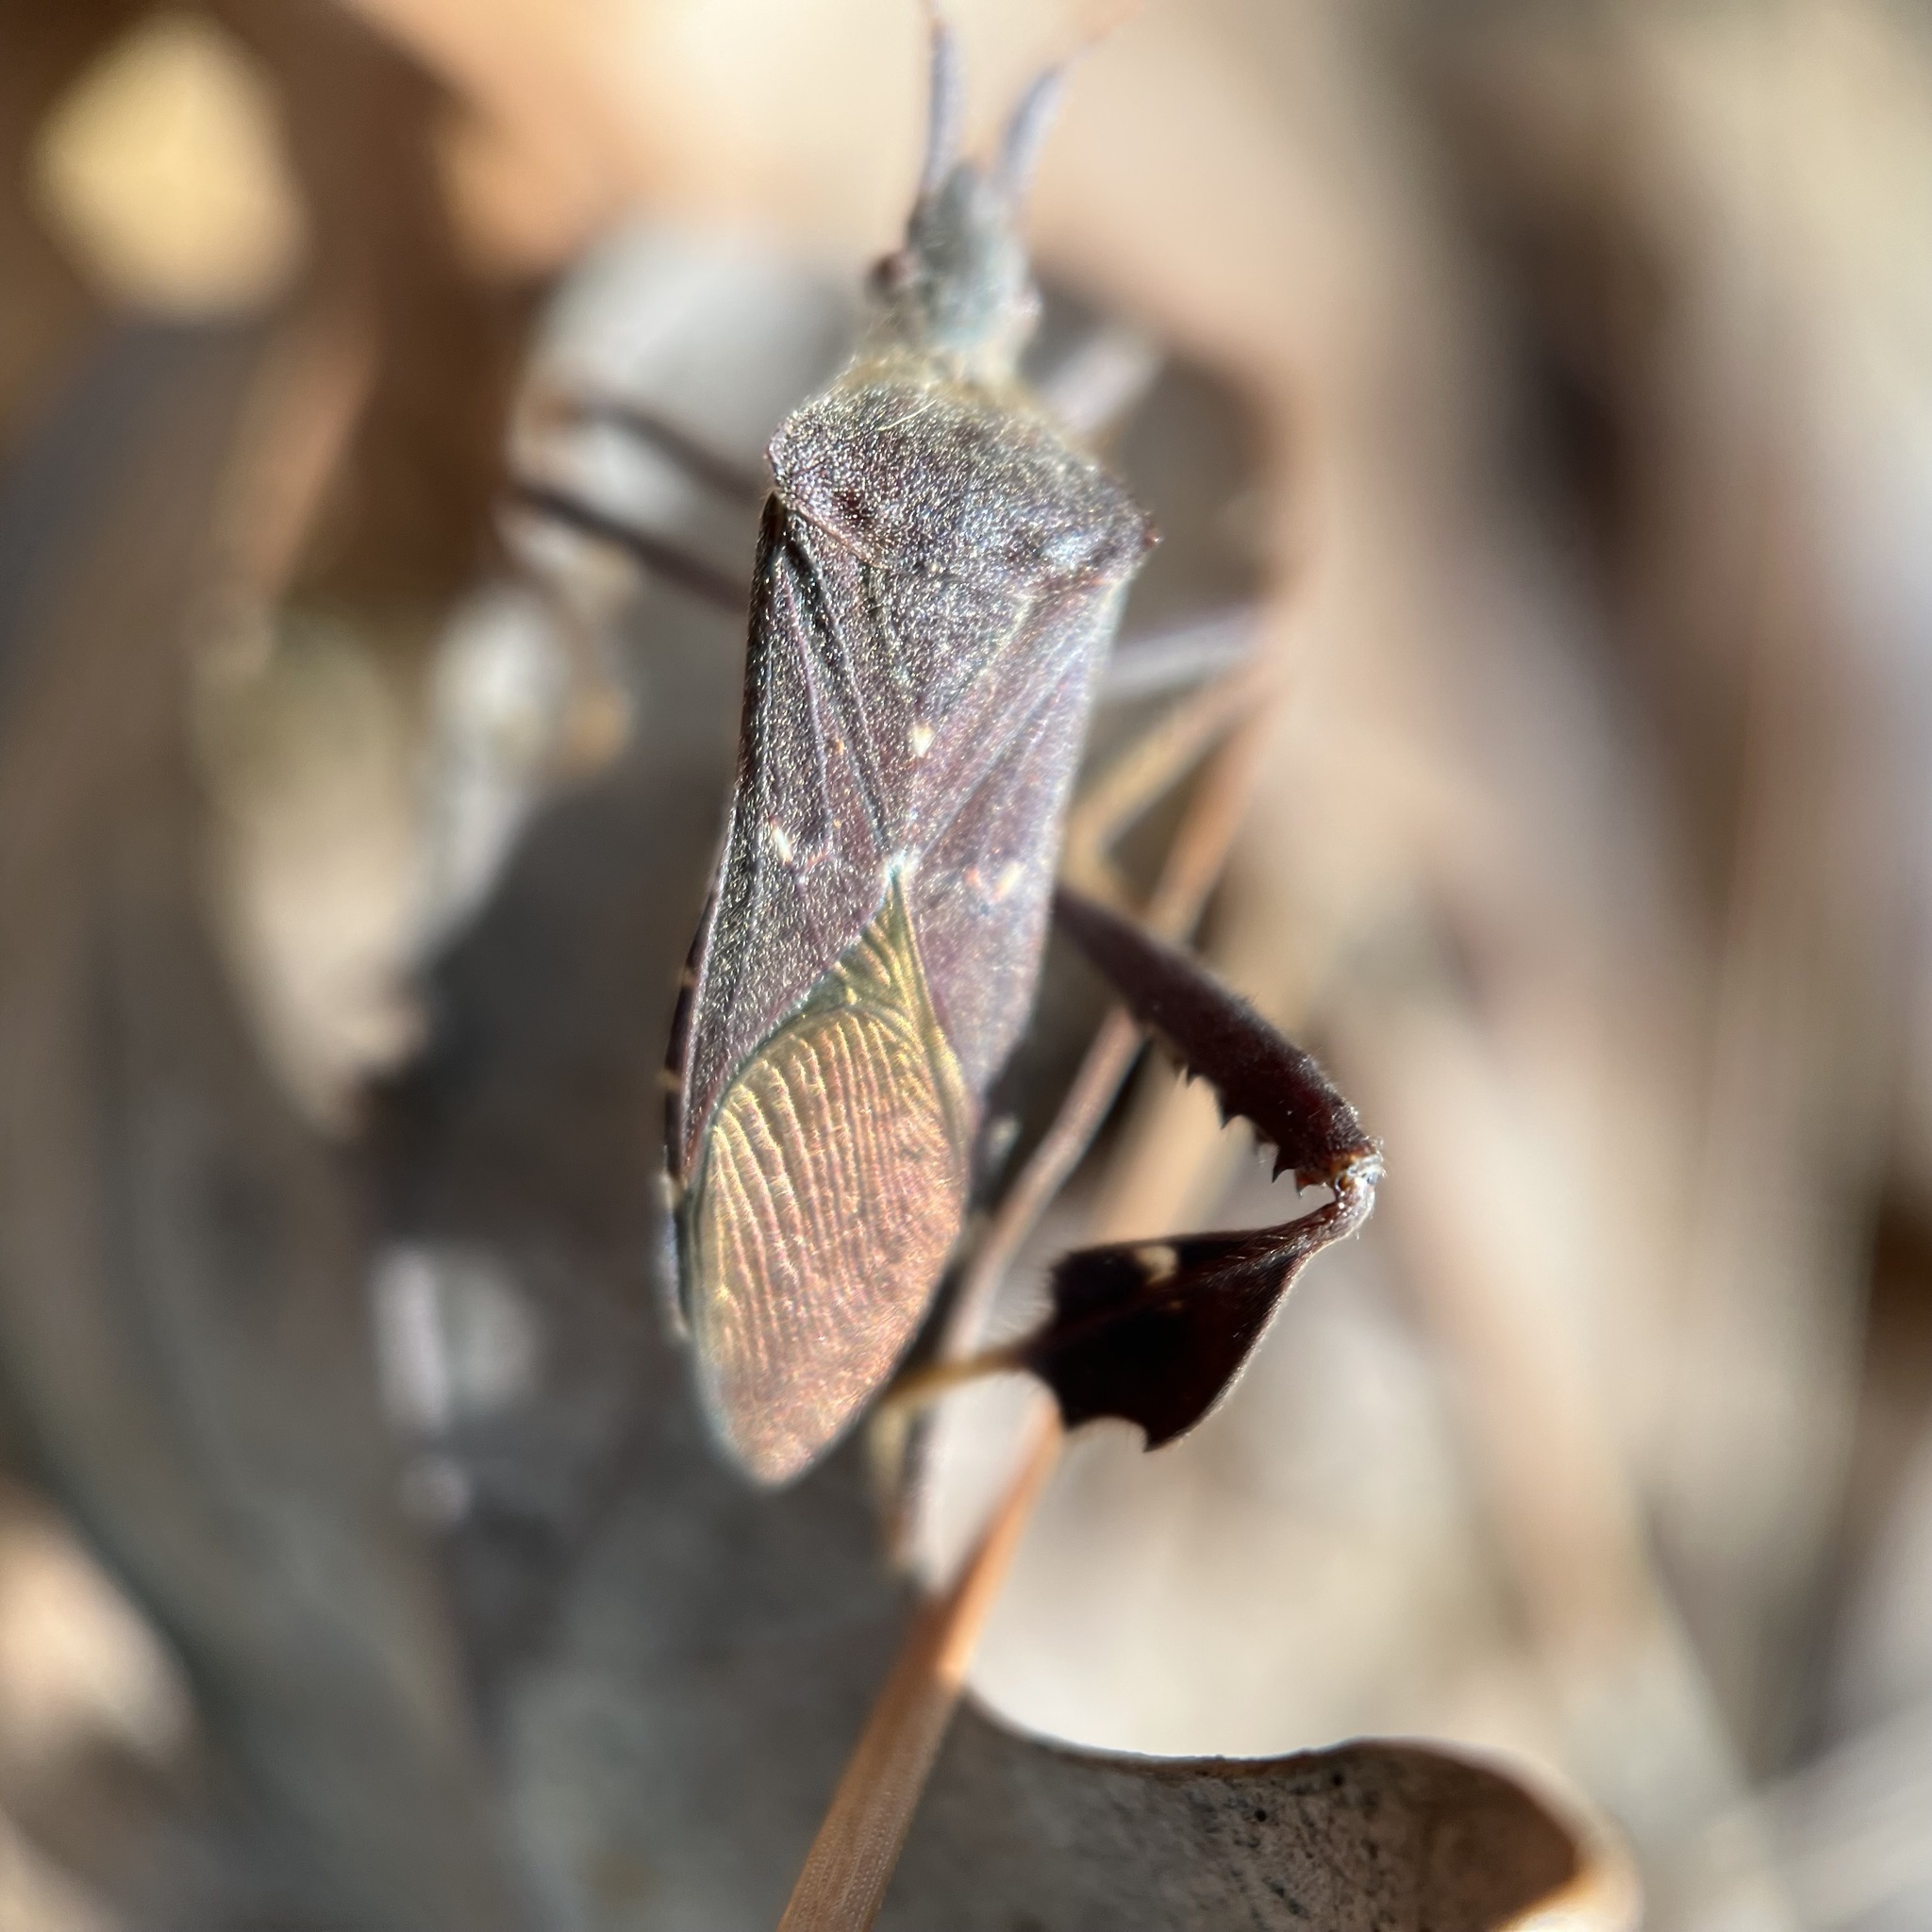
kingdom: Animalia
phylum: Arthropoda
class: Insecta
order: Hemiptera
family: Coreidae
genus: Leptoglossus
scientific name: Leptoglossus oppositus
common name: Northern leaf-footed bug
